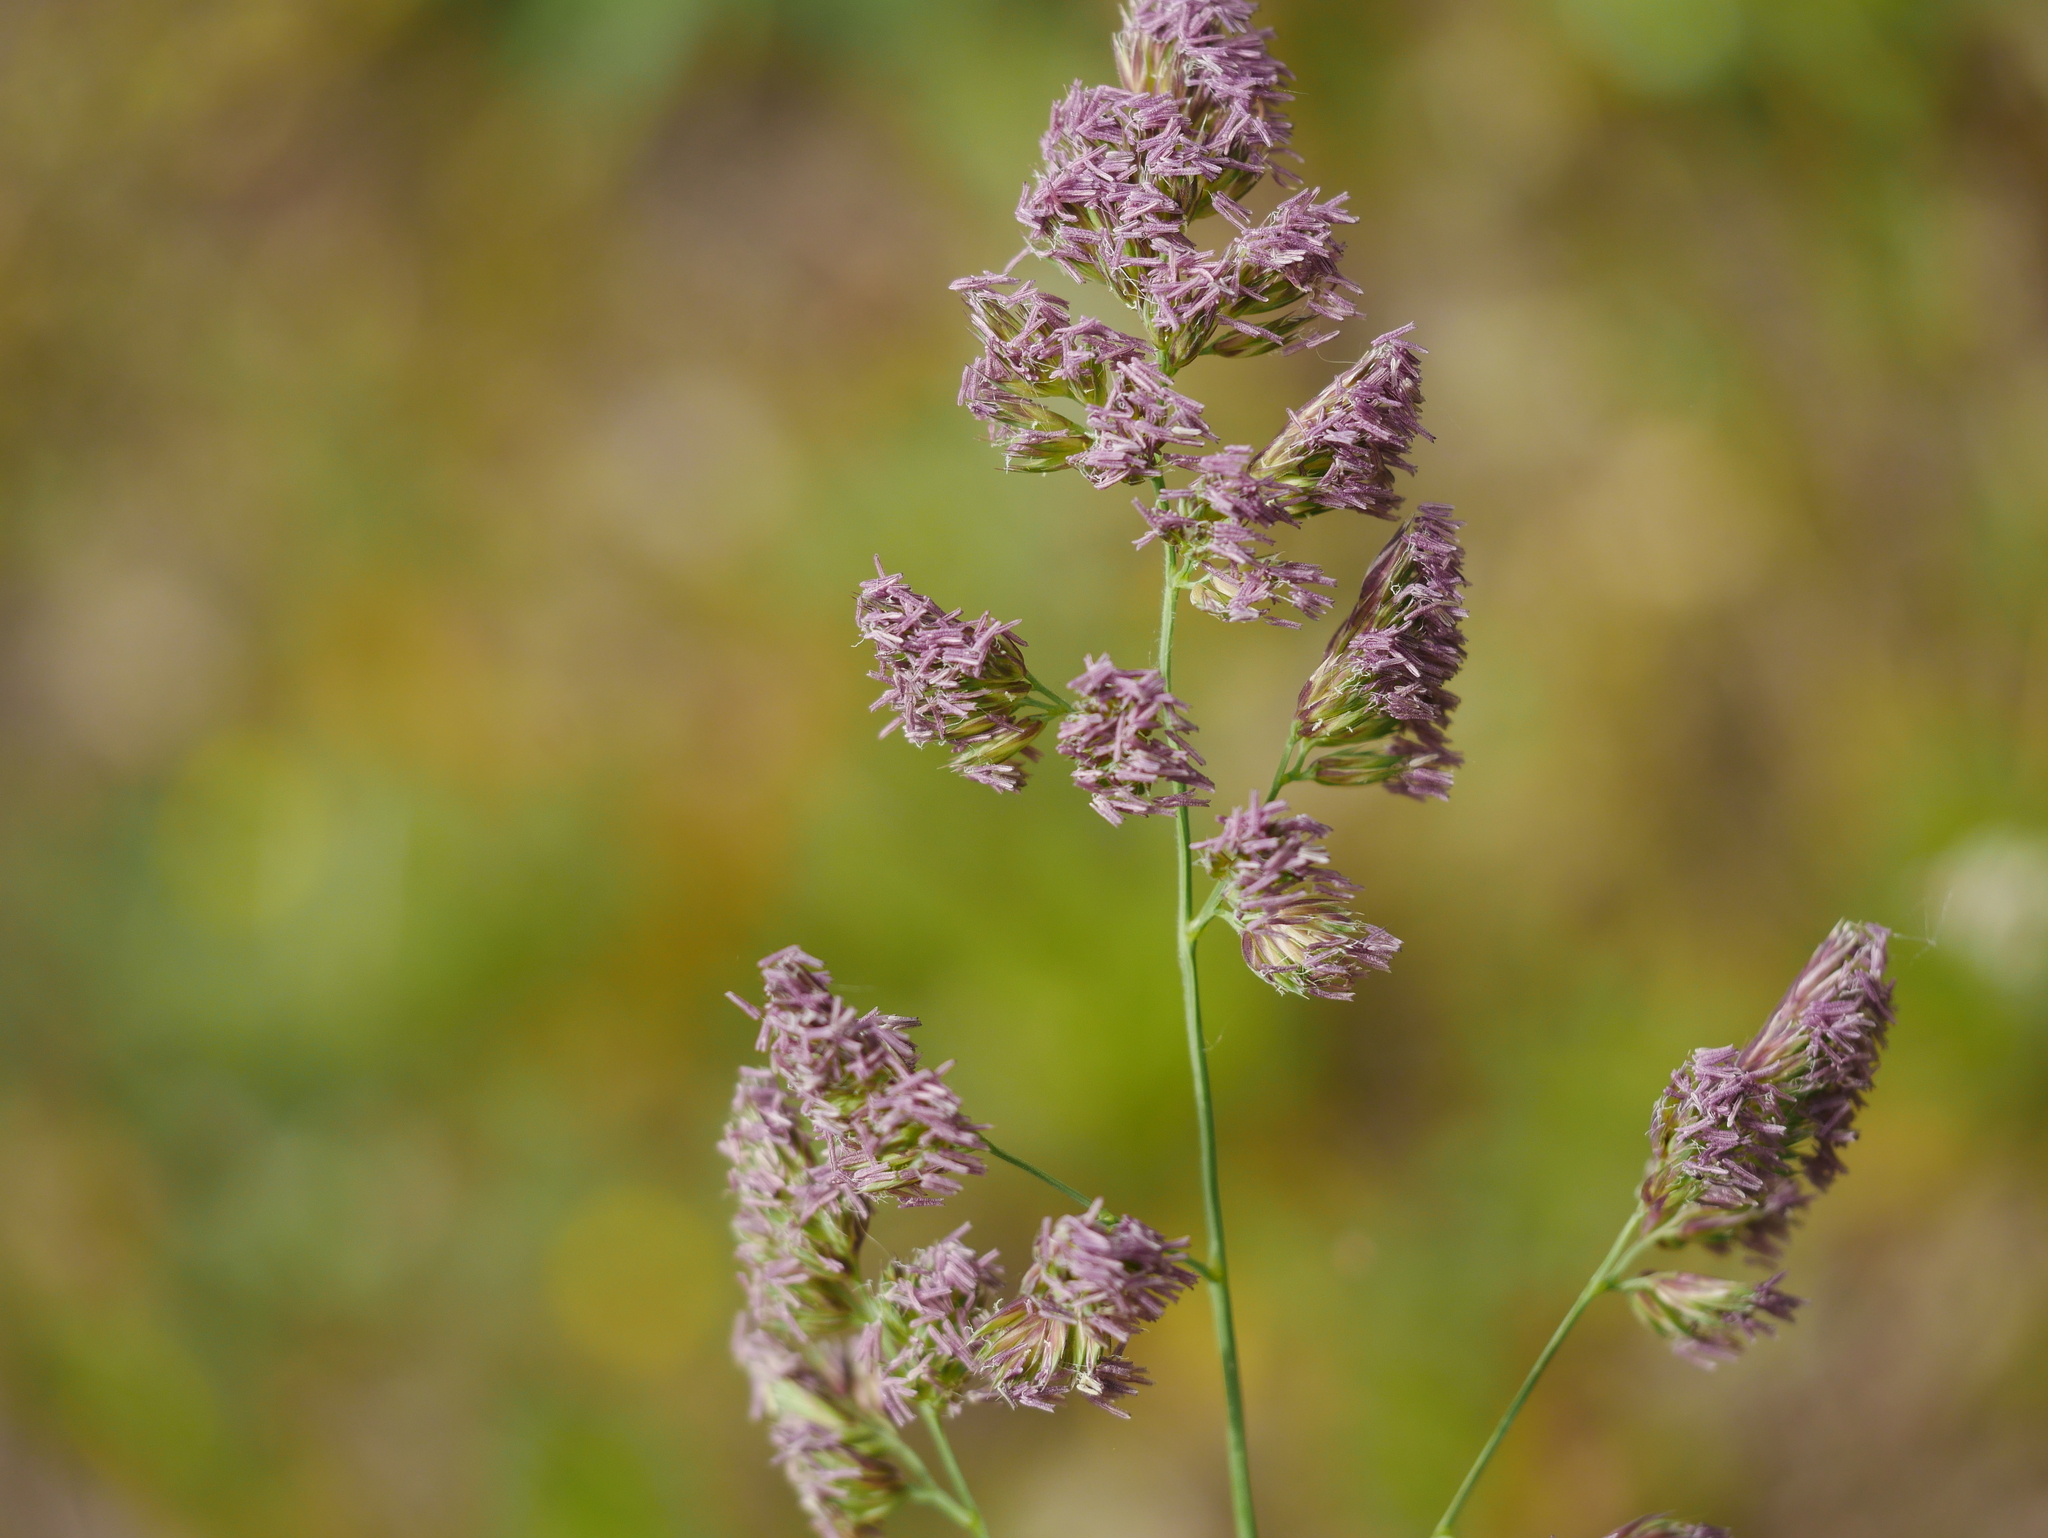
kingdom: Plantae
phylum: Tracheophyta
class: Liliopsida
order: Poales
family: Poaceae
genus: Dactylis
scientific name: Dactylis glomerata
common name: Orchardgrass
